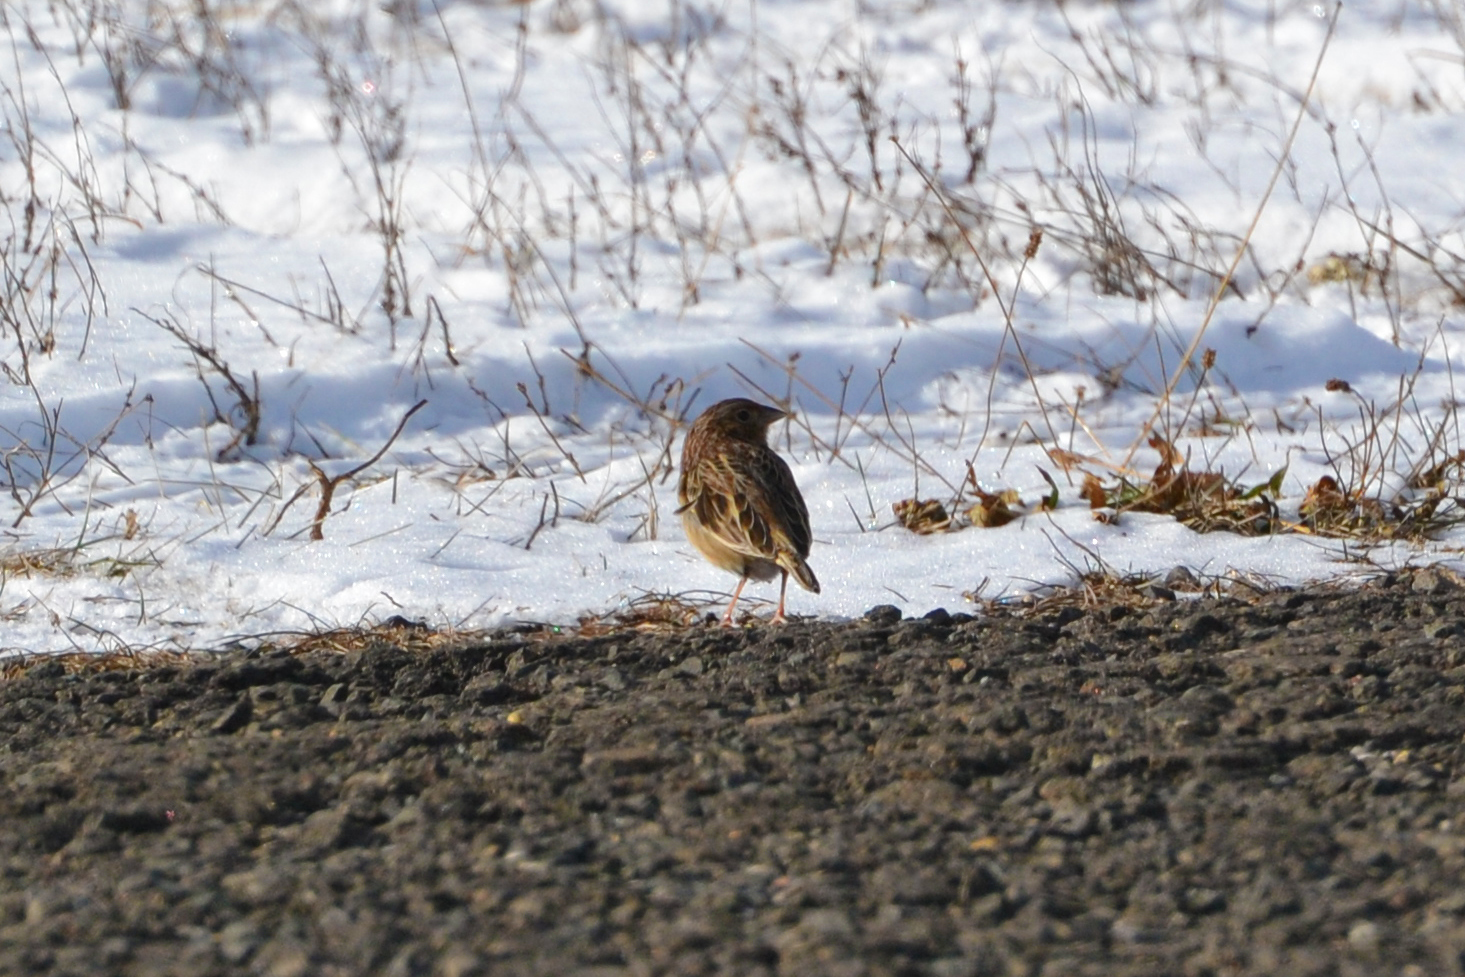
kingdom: Animalia
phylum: Chordata
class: Aves
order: Passeriformes
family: Passerellidae
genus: Ammodramus
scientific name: Ammodramus savannarum
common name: Grasshopper sparrow
